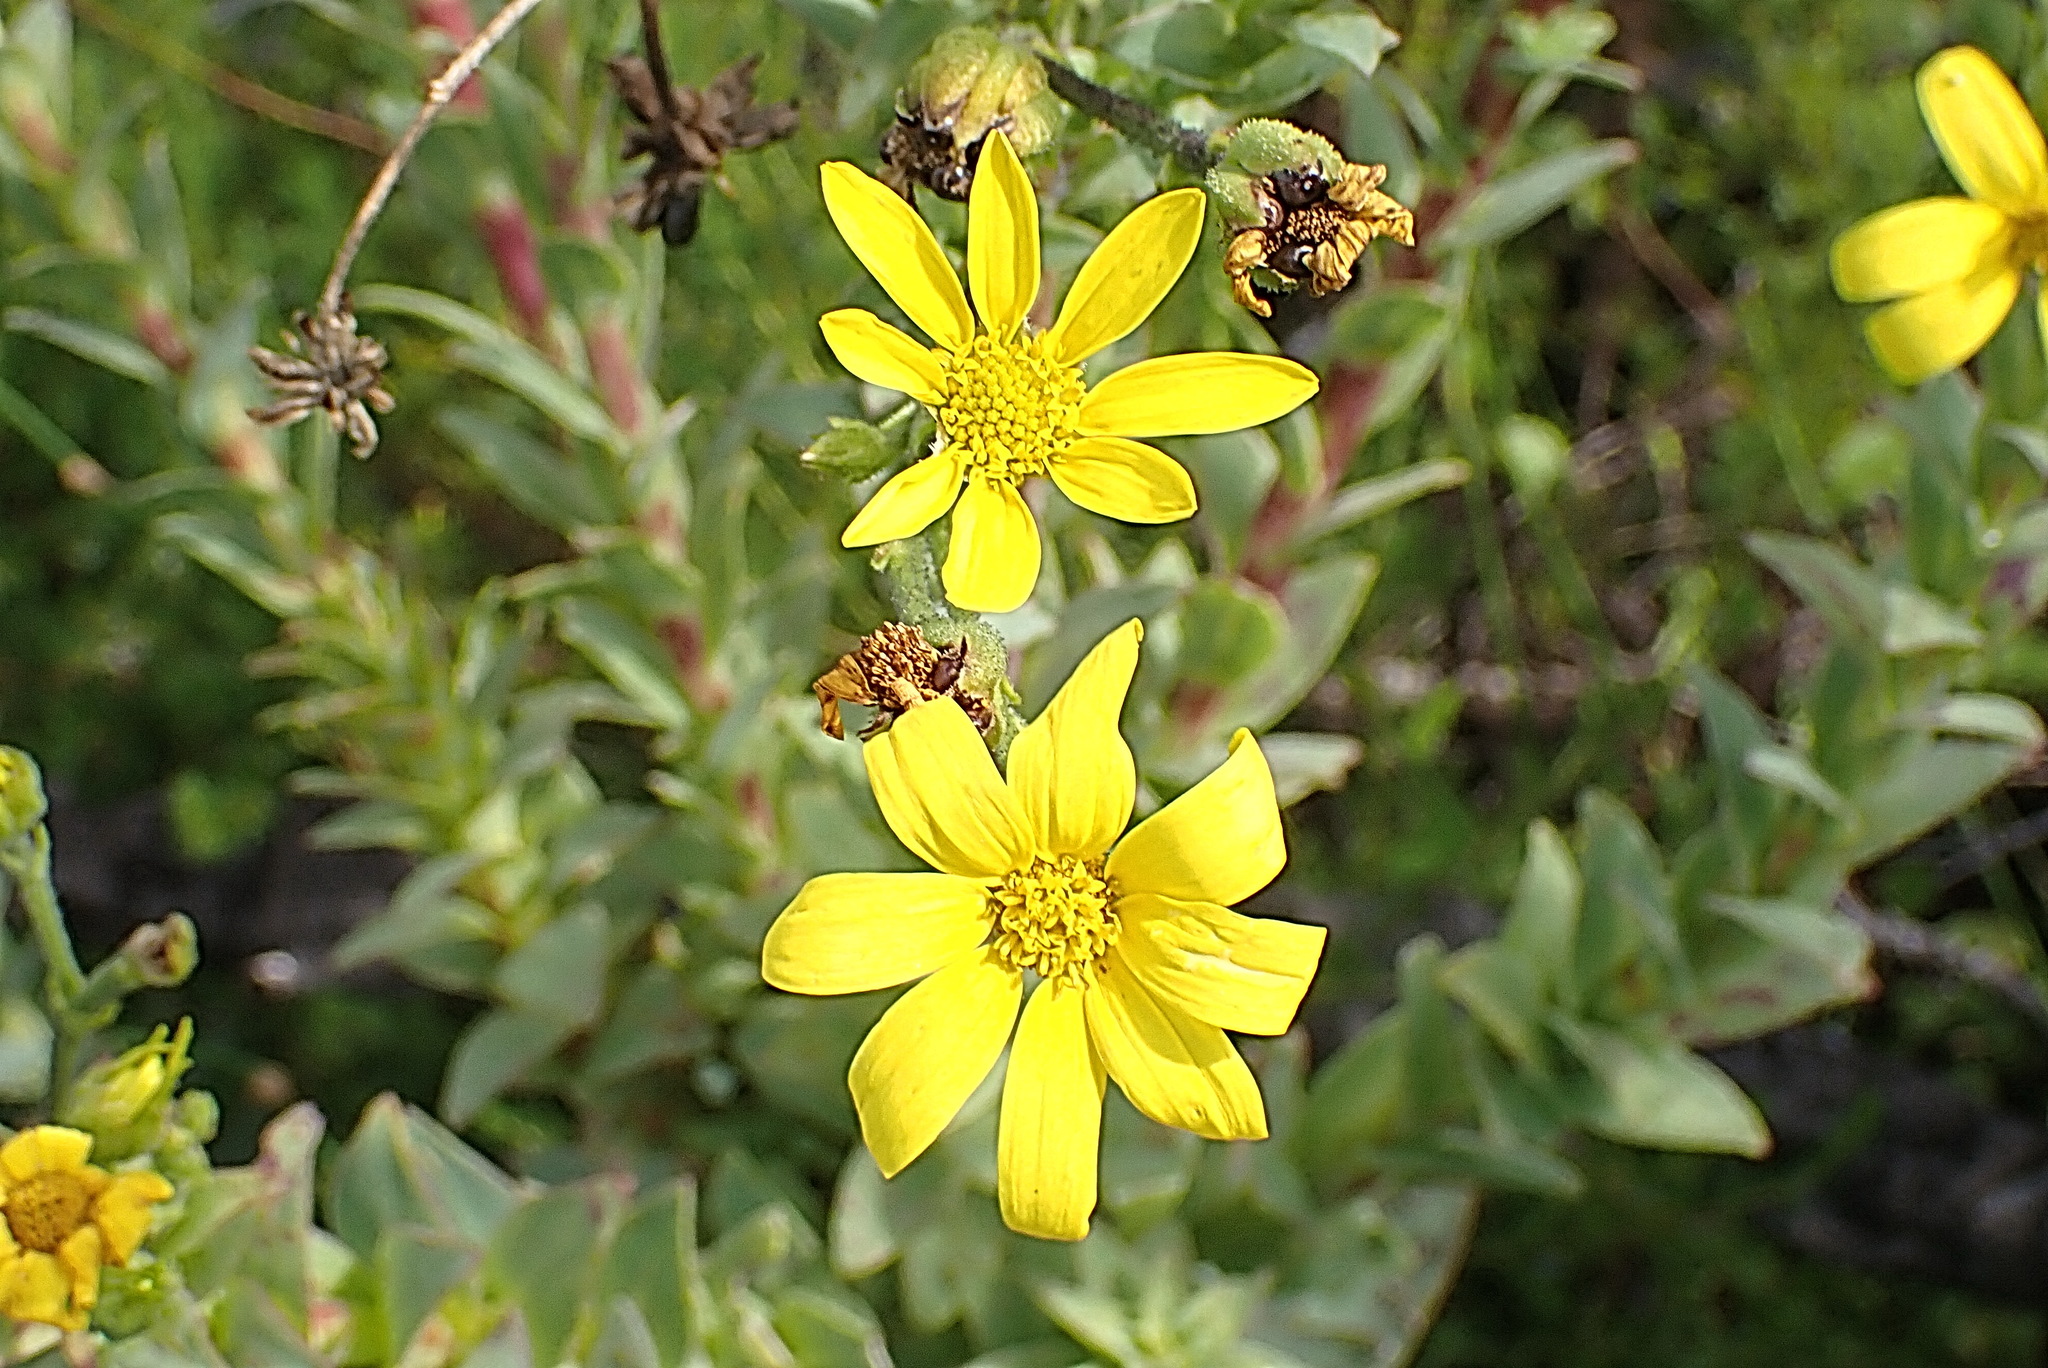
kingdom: Plantae
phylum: Tracheophyta
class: Magnoliopsida
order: Asterales
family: Asteraceae
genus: Osteospermum
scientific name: Osteospermum corymbosum
